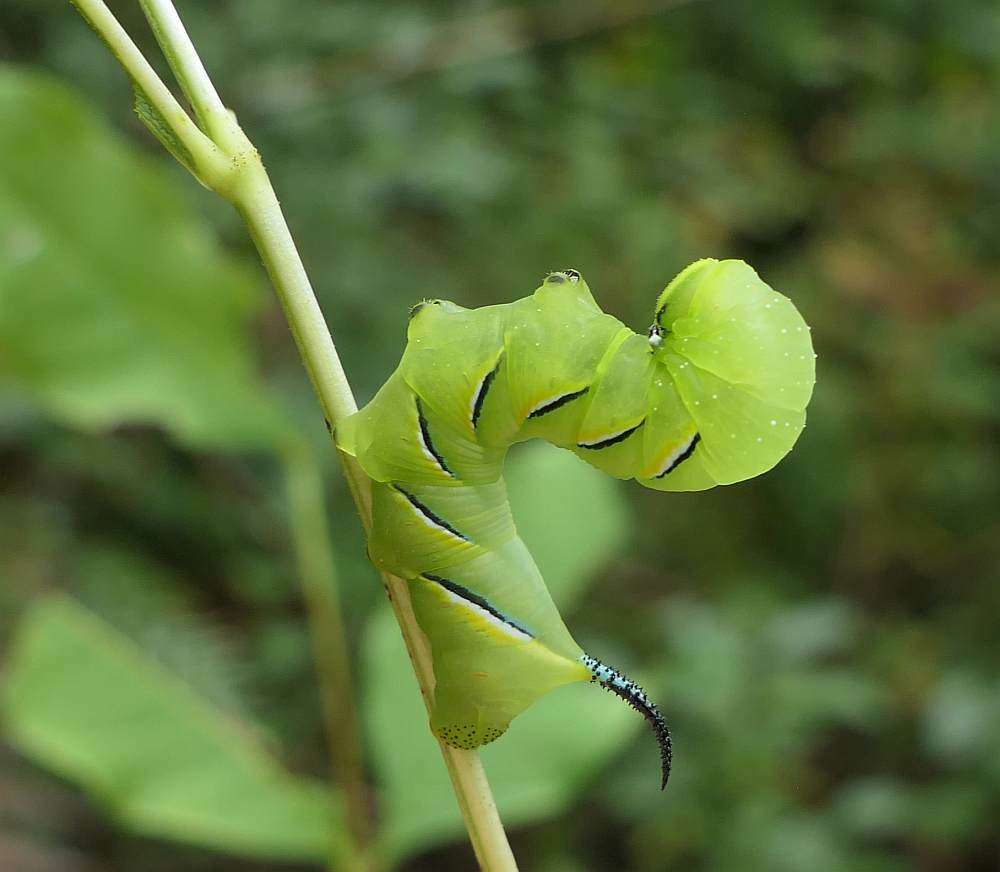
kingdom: Animalia
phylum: Arthropoda
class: Insecta
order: Lepidoptera
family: Sphingidae
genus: Sphinx
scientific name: Sphinx kalmiae
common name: Laurel sphinx
